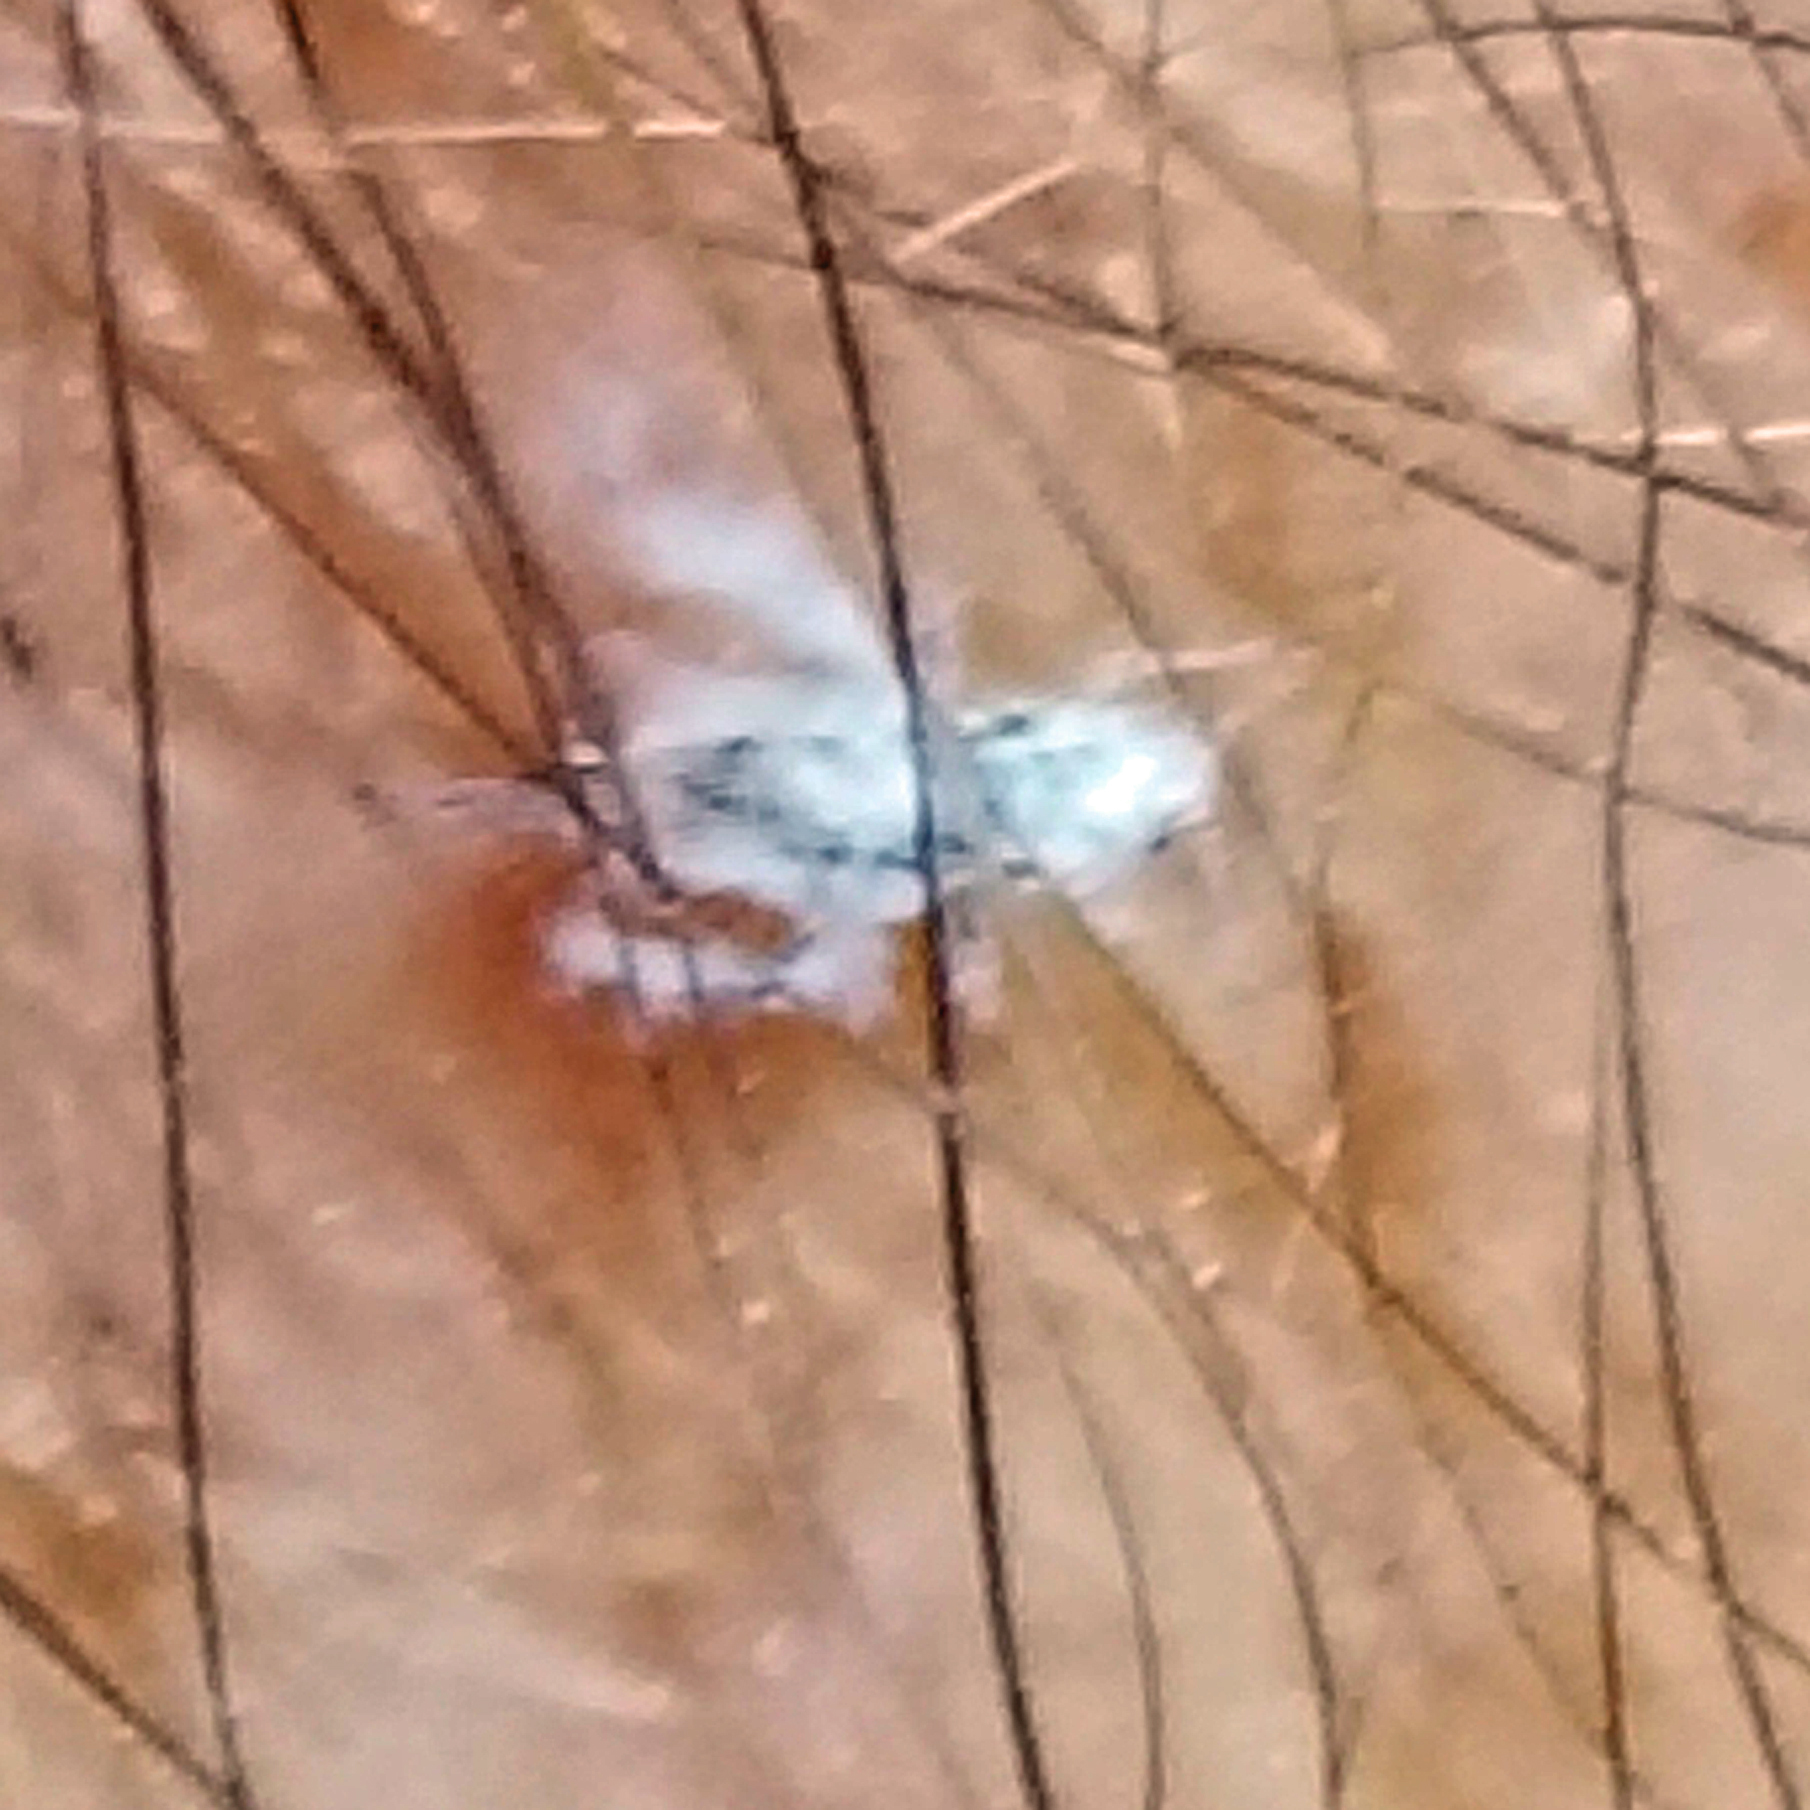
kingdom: Animalia
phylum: Arthropoda
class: Insecta
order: Hemiptera
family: Aphididae
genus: Shivaphis
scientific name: Shivaphis celti
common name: Asian wooly hackberry aphid
